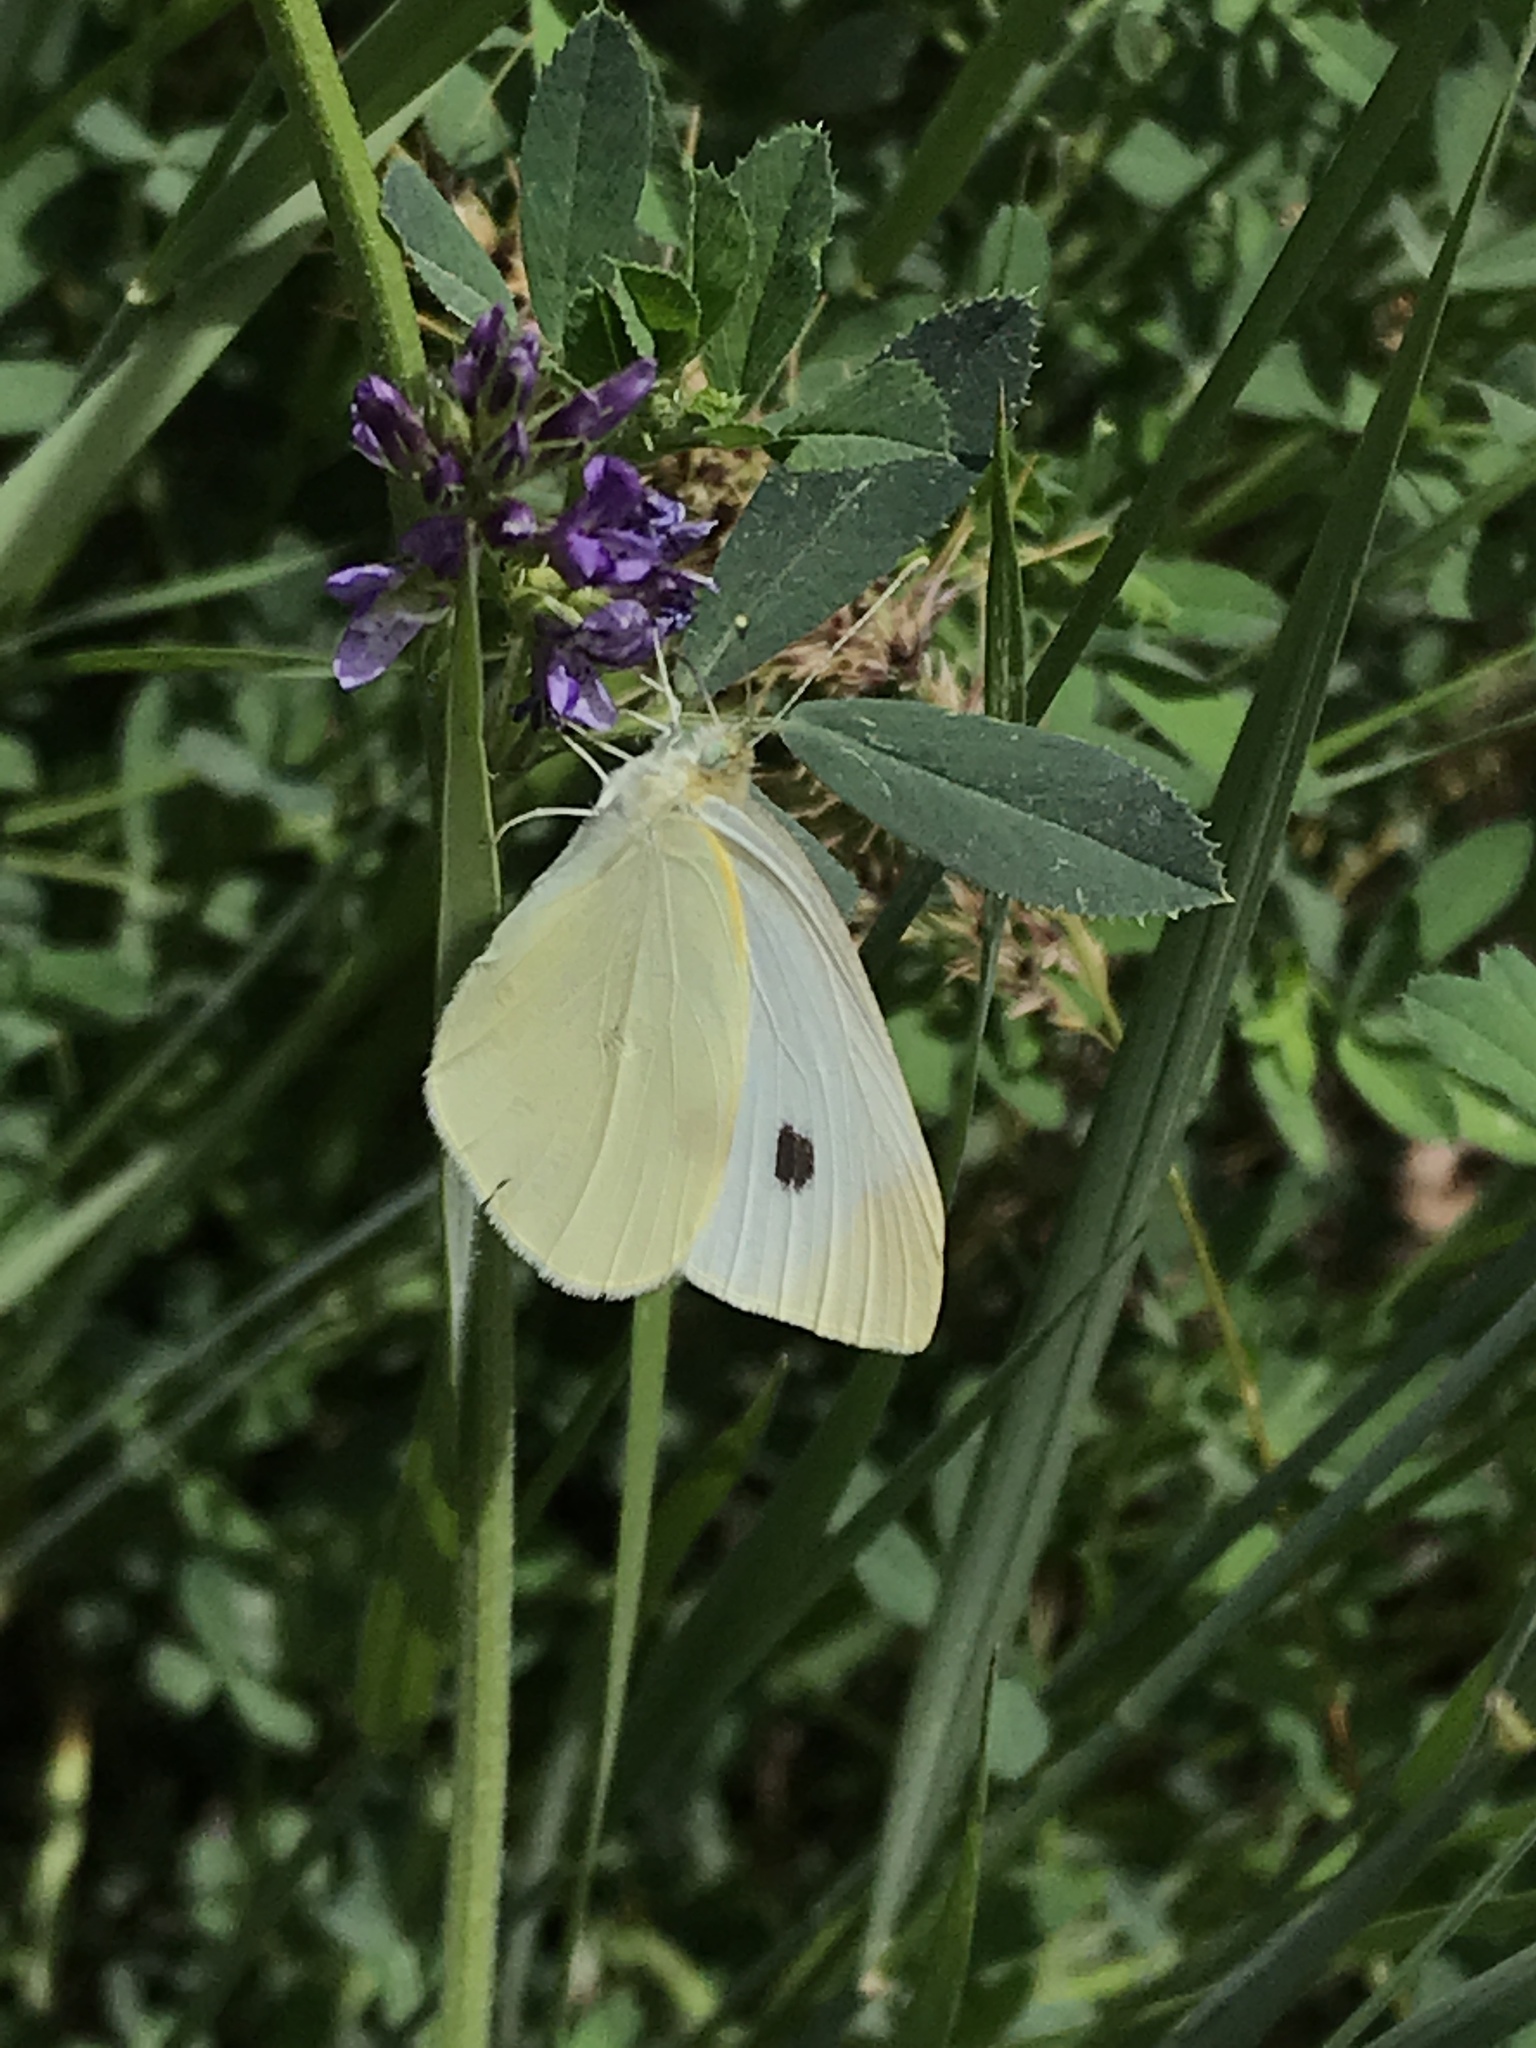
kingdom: Animalia
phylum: Arthropoda
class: Insecta
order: Lepidoptera
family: Pieridae
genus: Pieris
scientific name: Pieris rapae
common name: Small white
